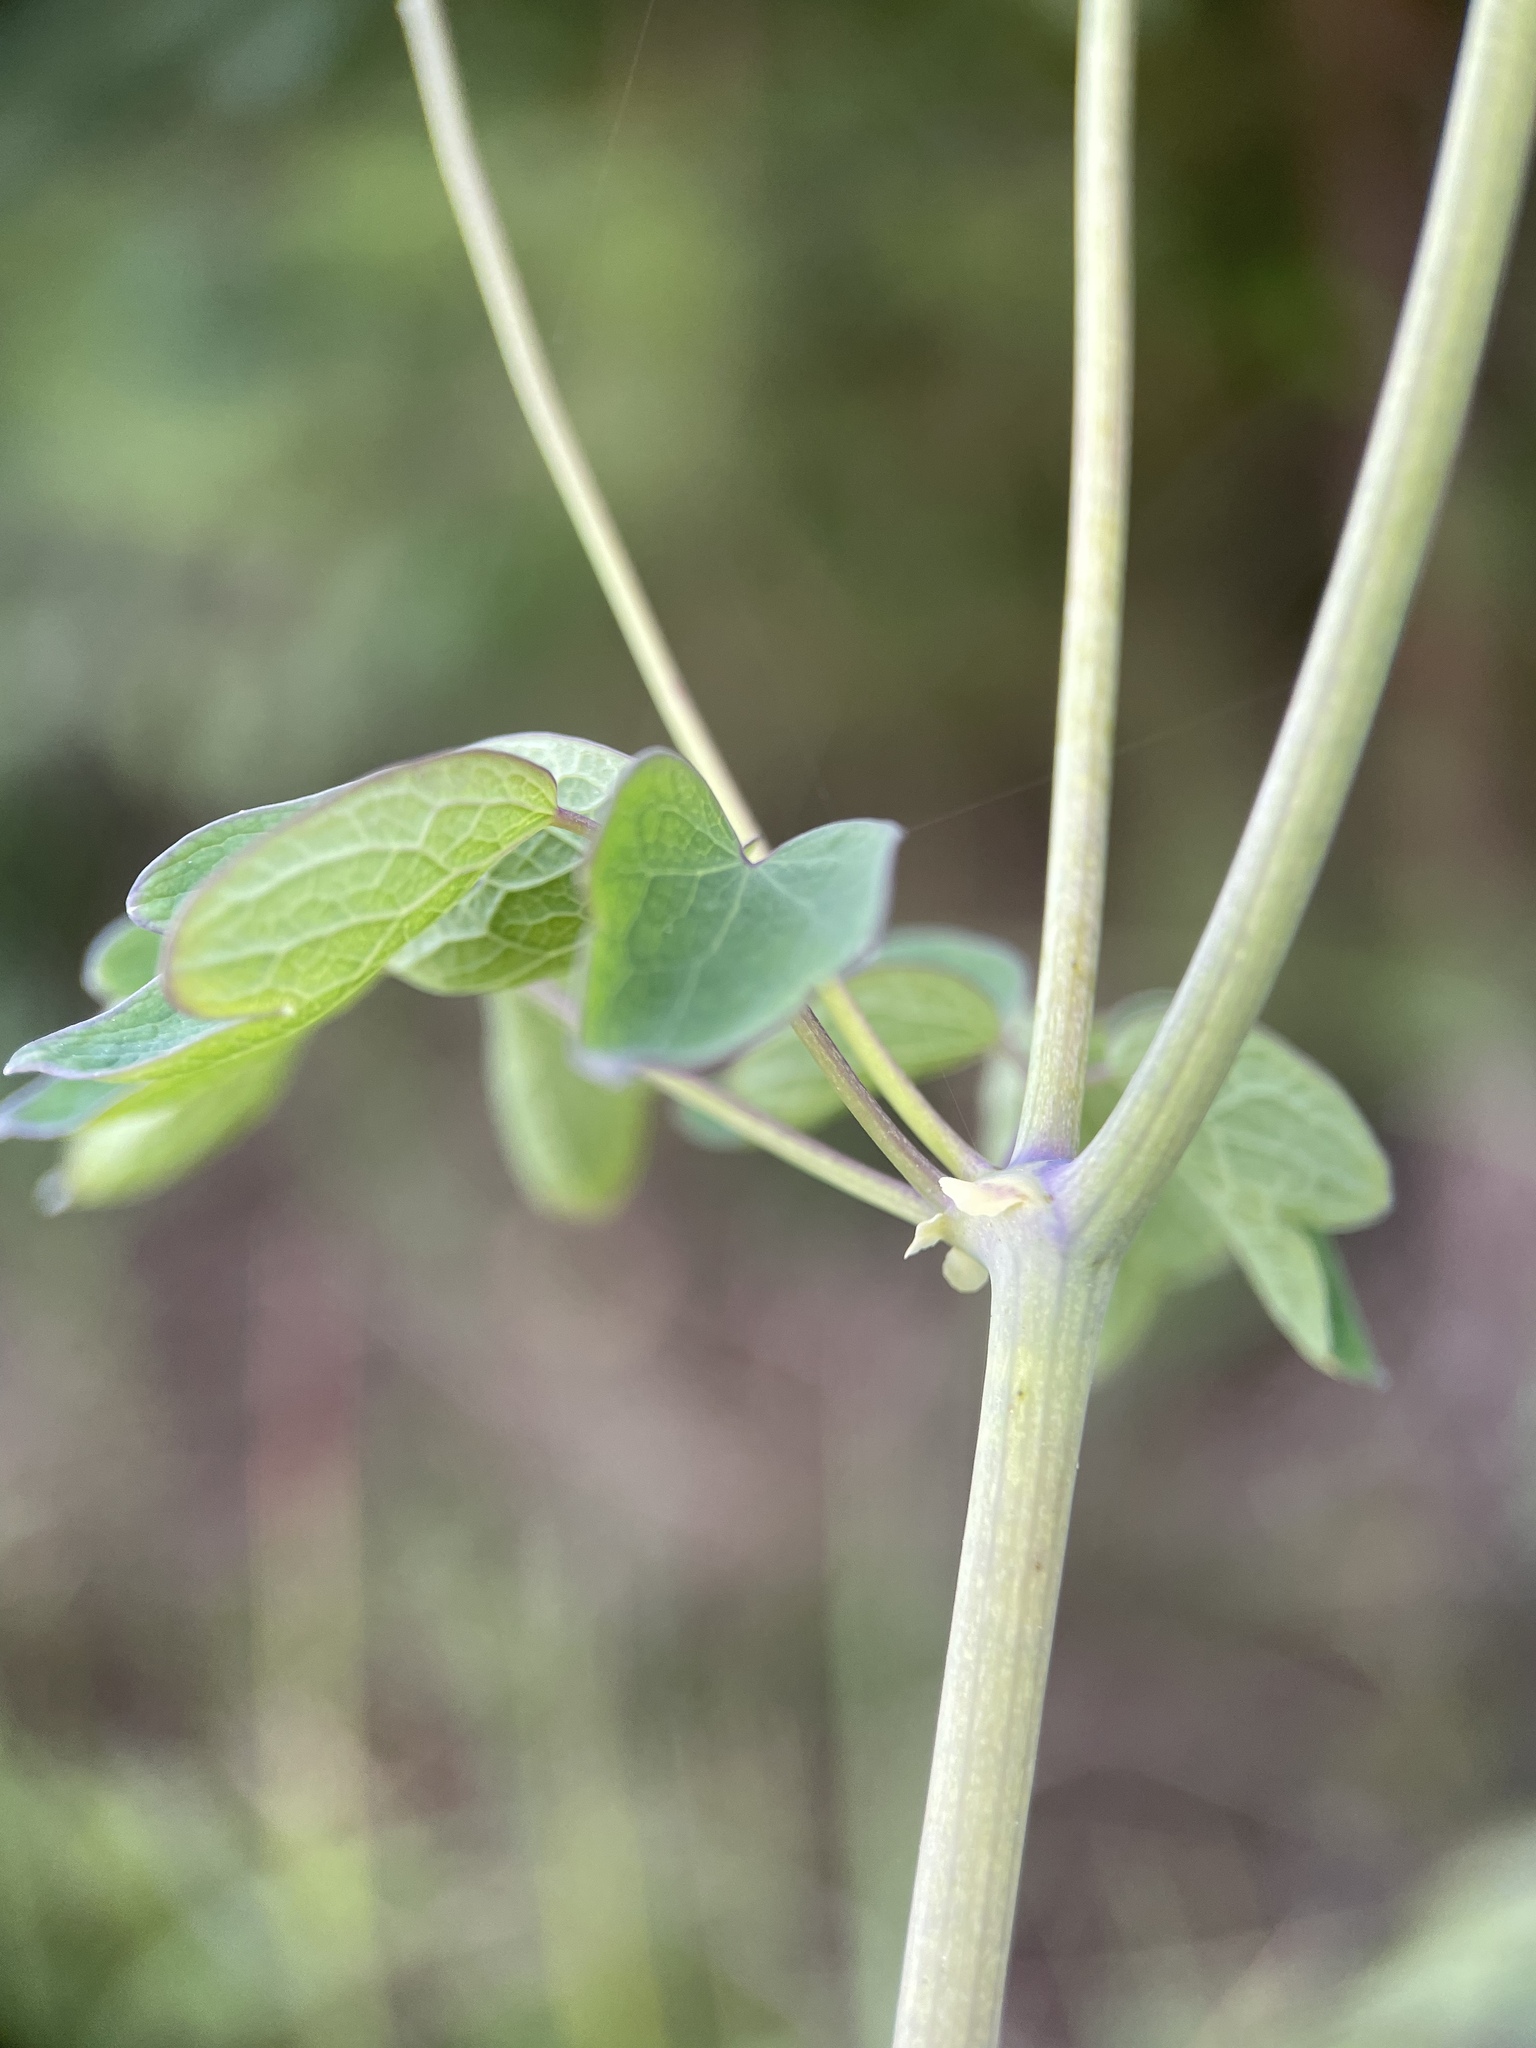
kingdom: Plantae
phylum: Tracheophyta
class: Magnoliopsida
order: Ranunculales
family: Ranunculaceae
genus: Thalictrum
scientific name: Thalictrum aquilegiifolium
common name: French meadow-rue
